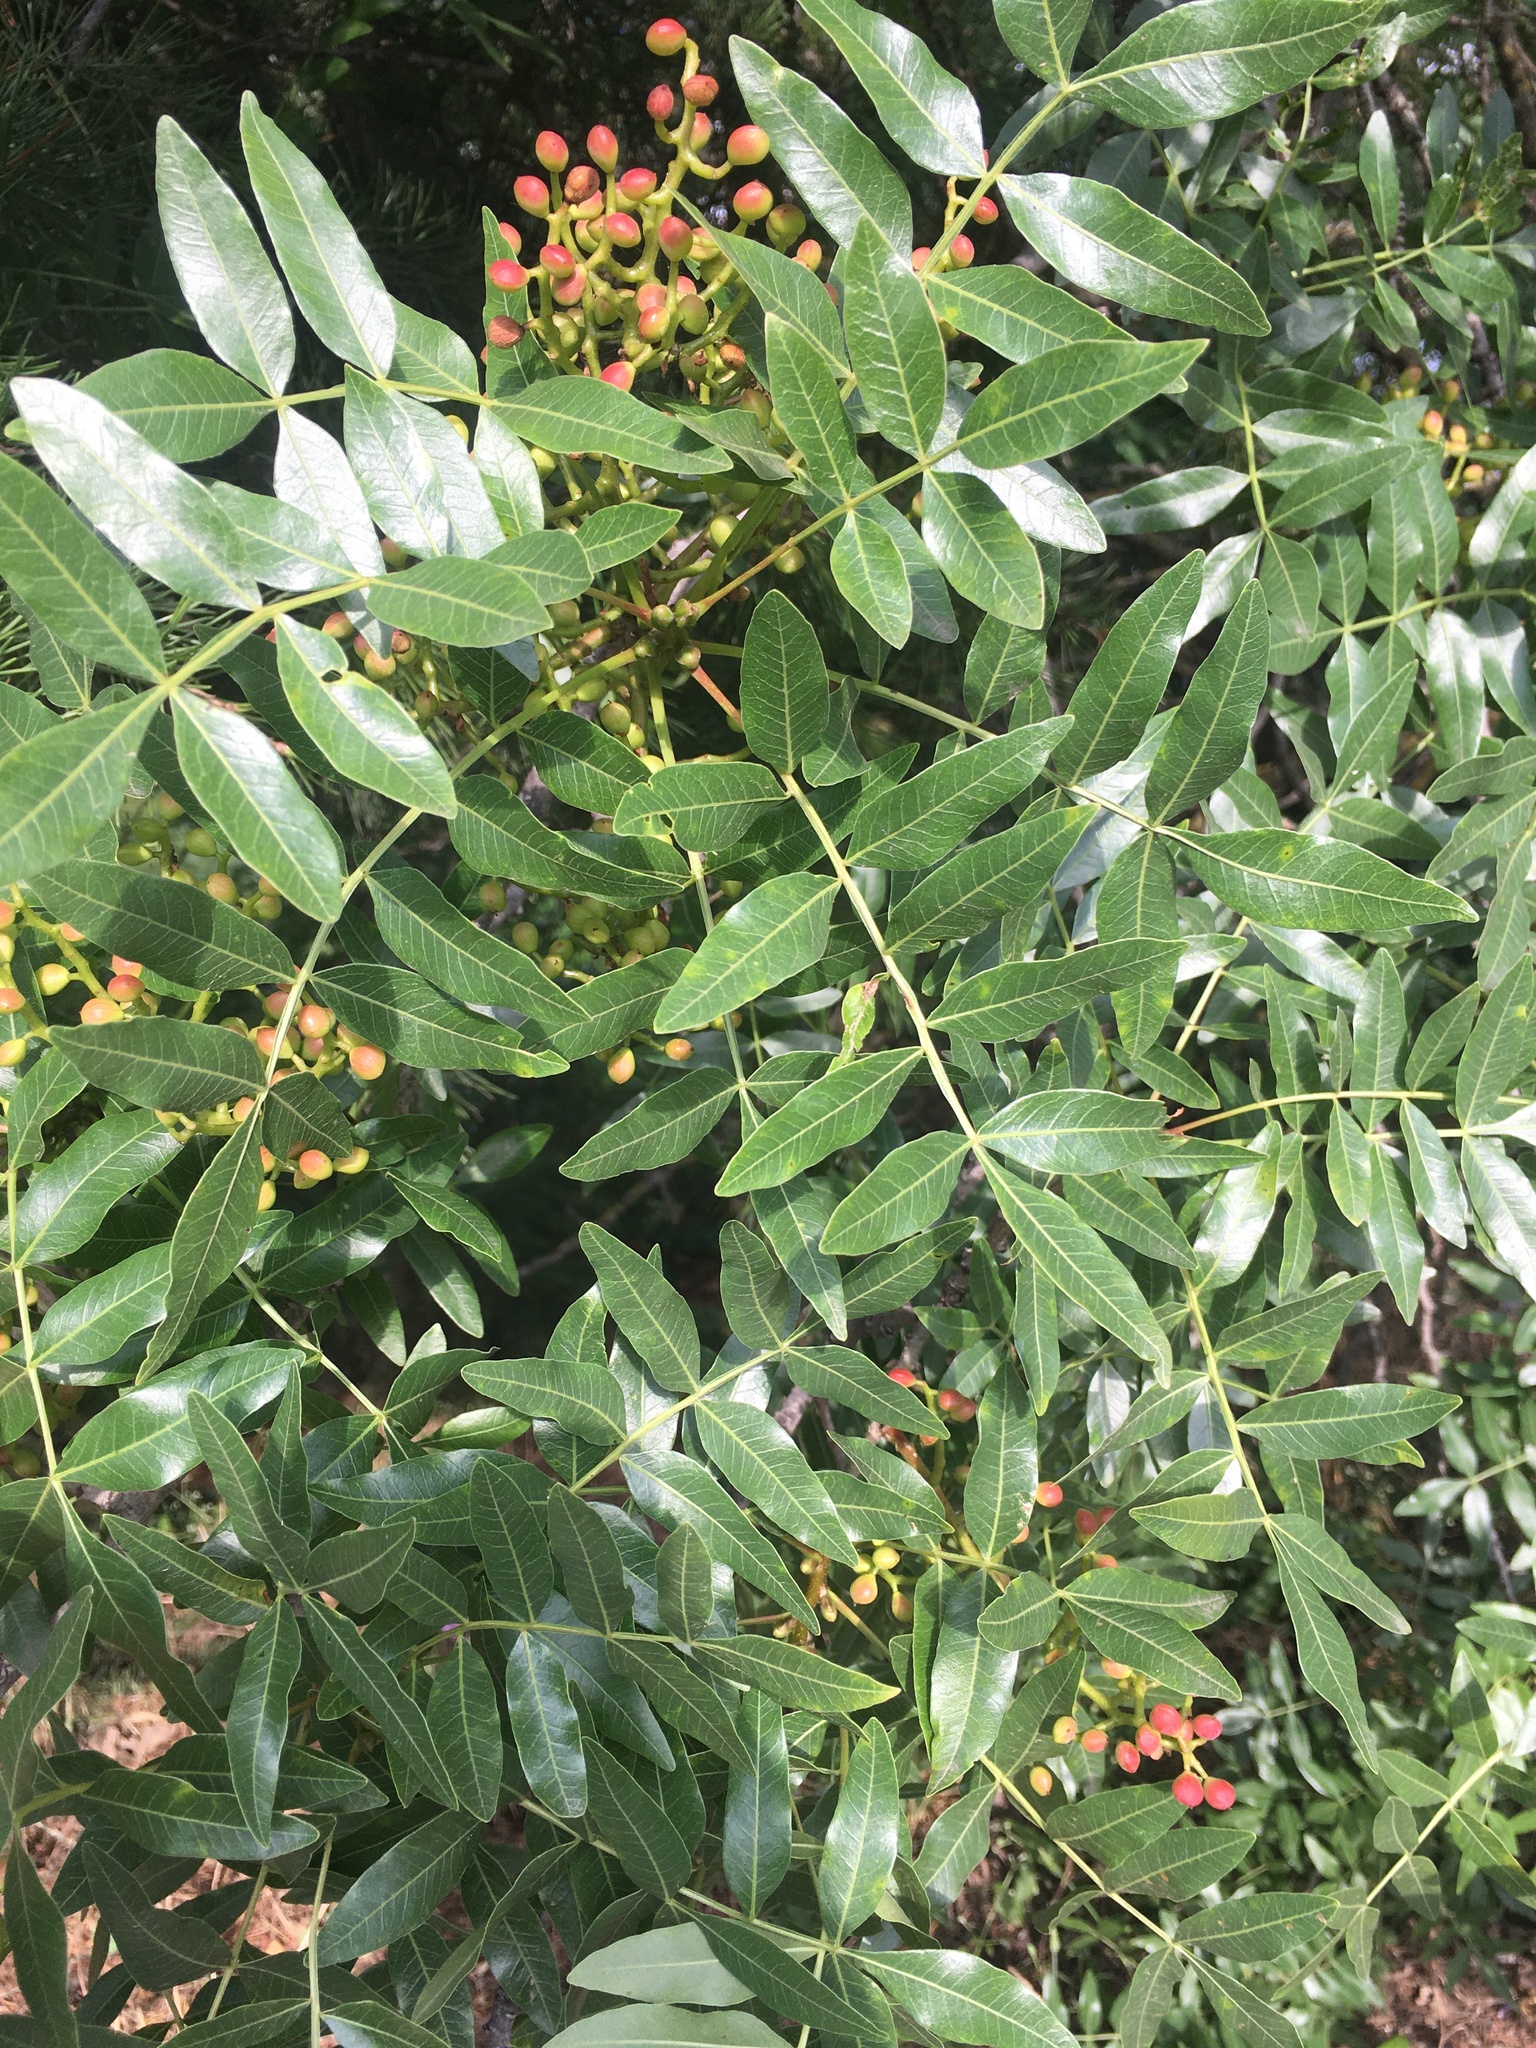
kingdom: Plantae
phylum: Tracheophyta
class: Magnoliopsida
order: Sapindales
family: Anacardiaceae
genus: Pistacia
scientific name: Pistacia atlantica
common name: Mt. atlas mastic tree
